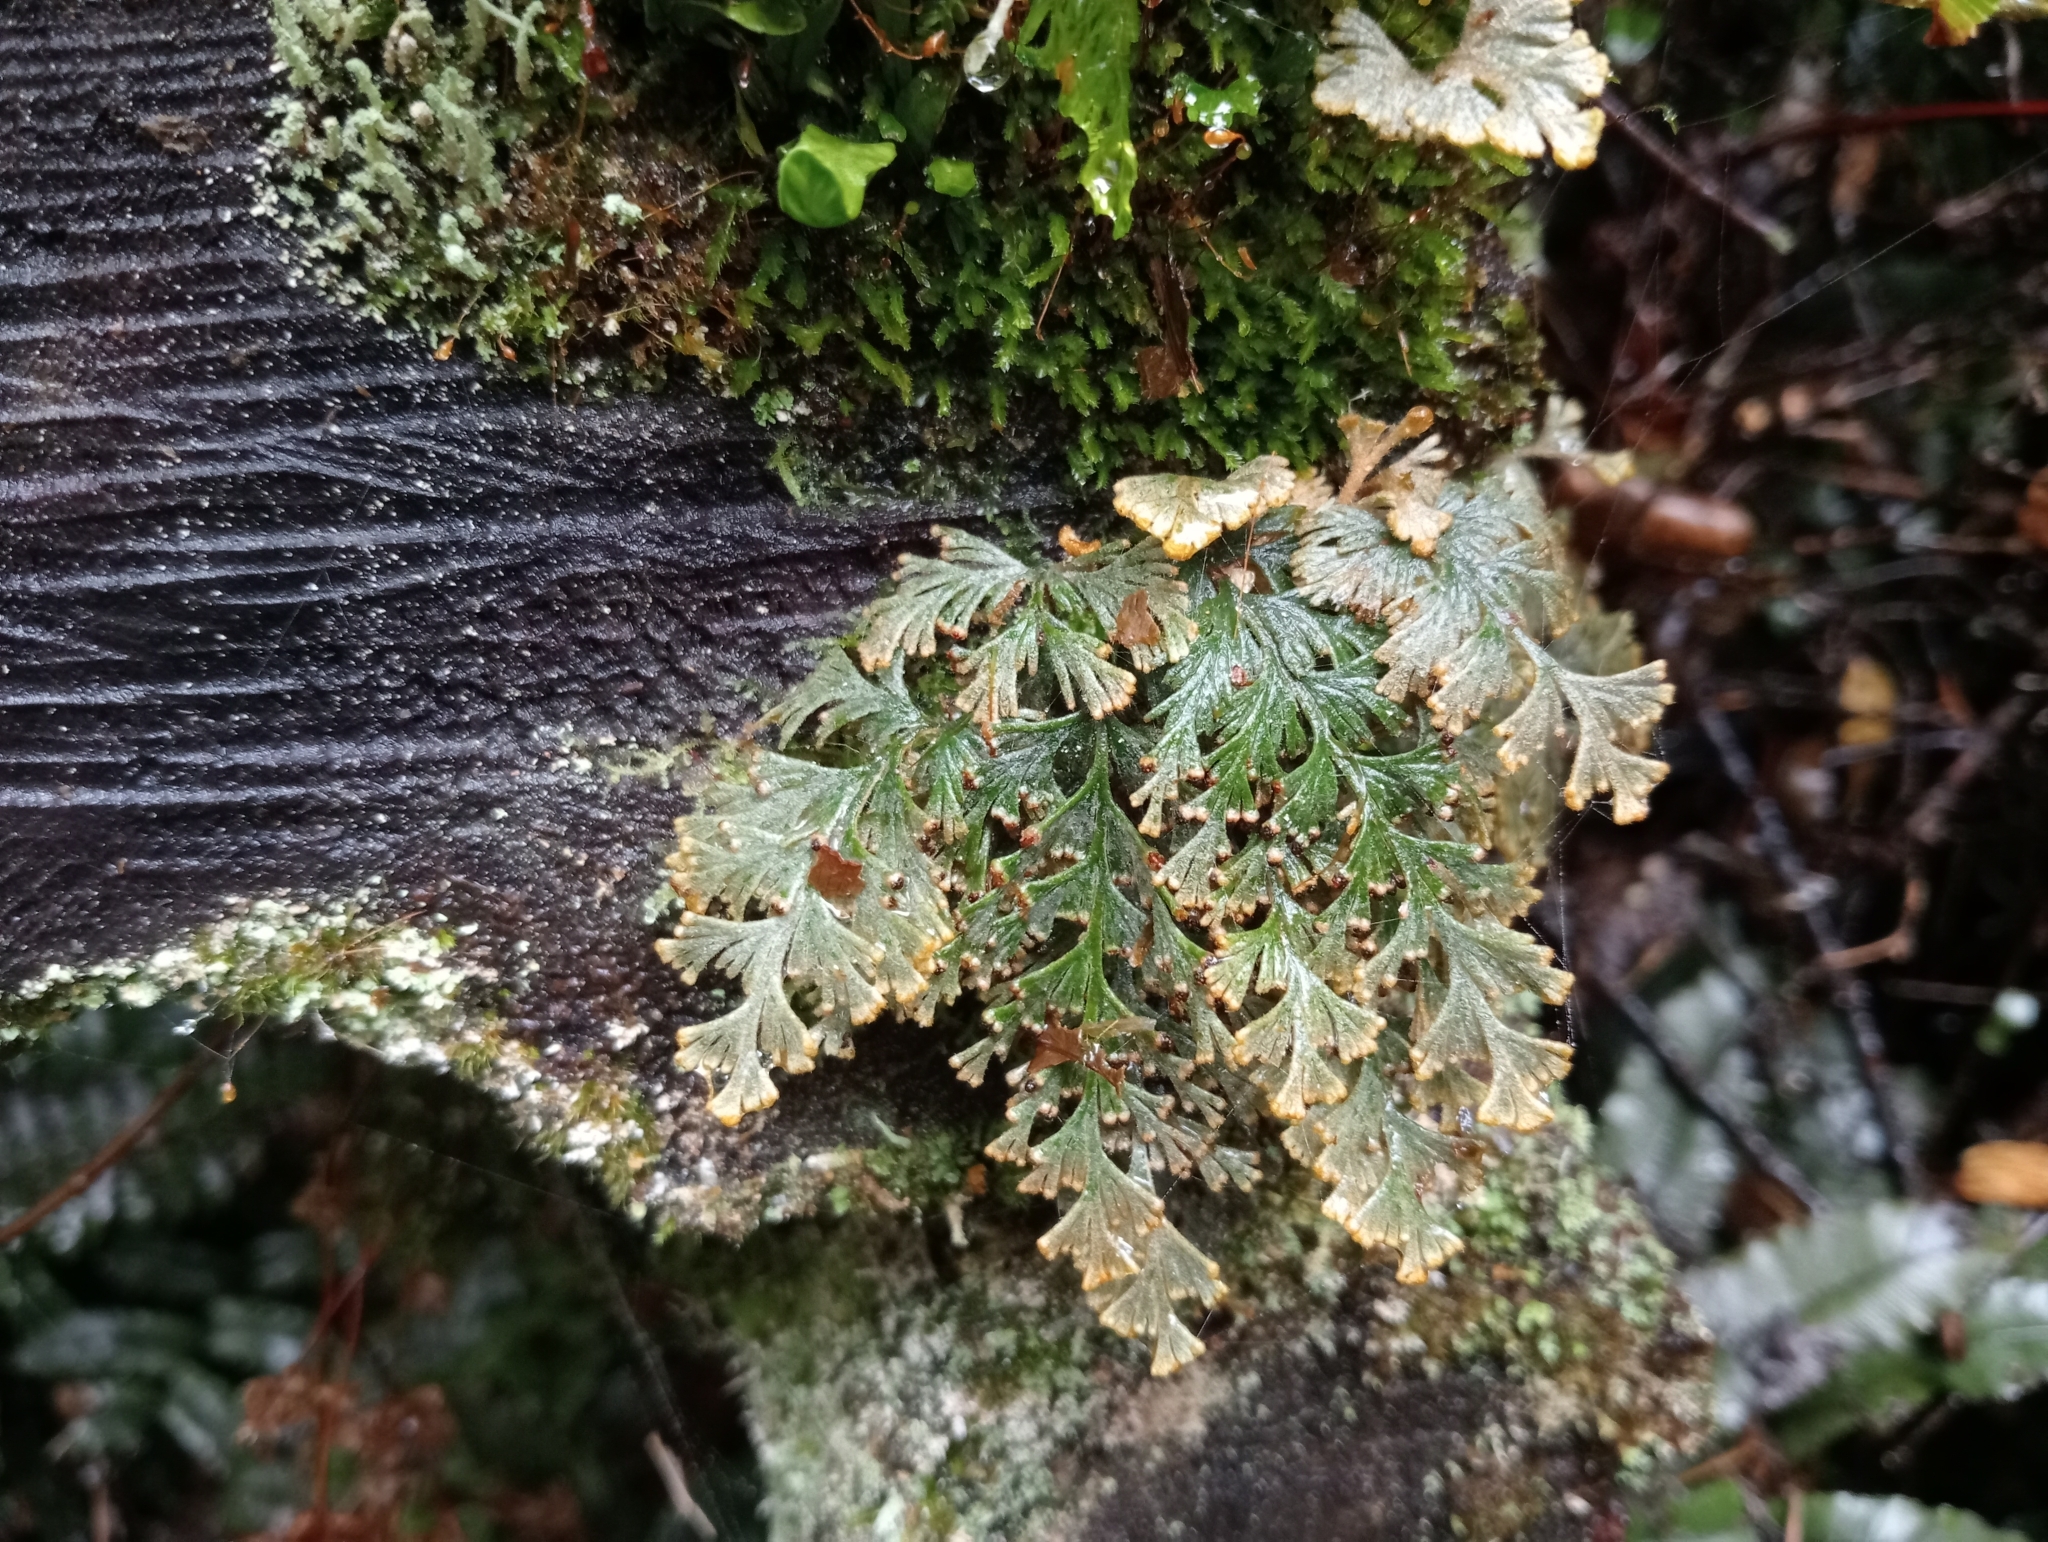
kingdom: Plantae
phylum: Tracheophyta
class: Polypodiopsida
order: Hymenophyllales
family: Hymenophyllaceae
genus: Hymenophyllum
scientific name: Hymenophyllum malingii
